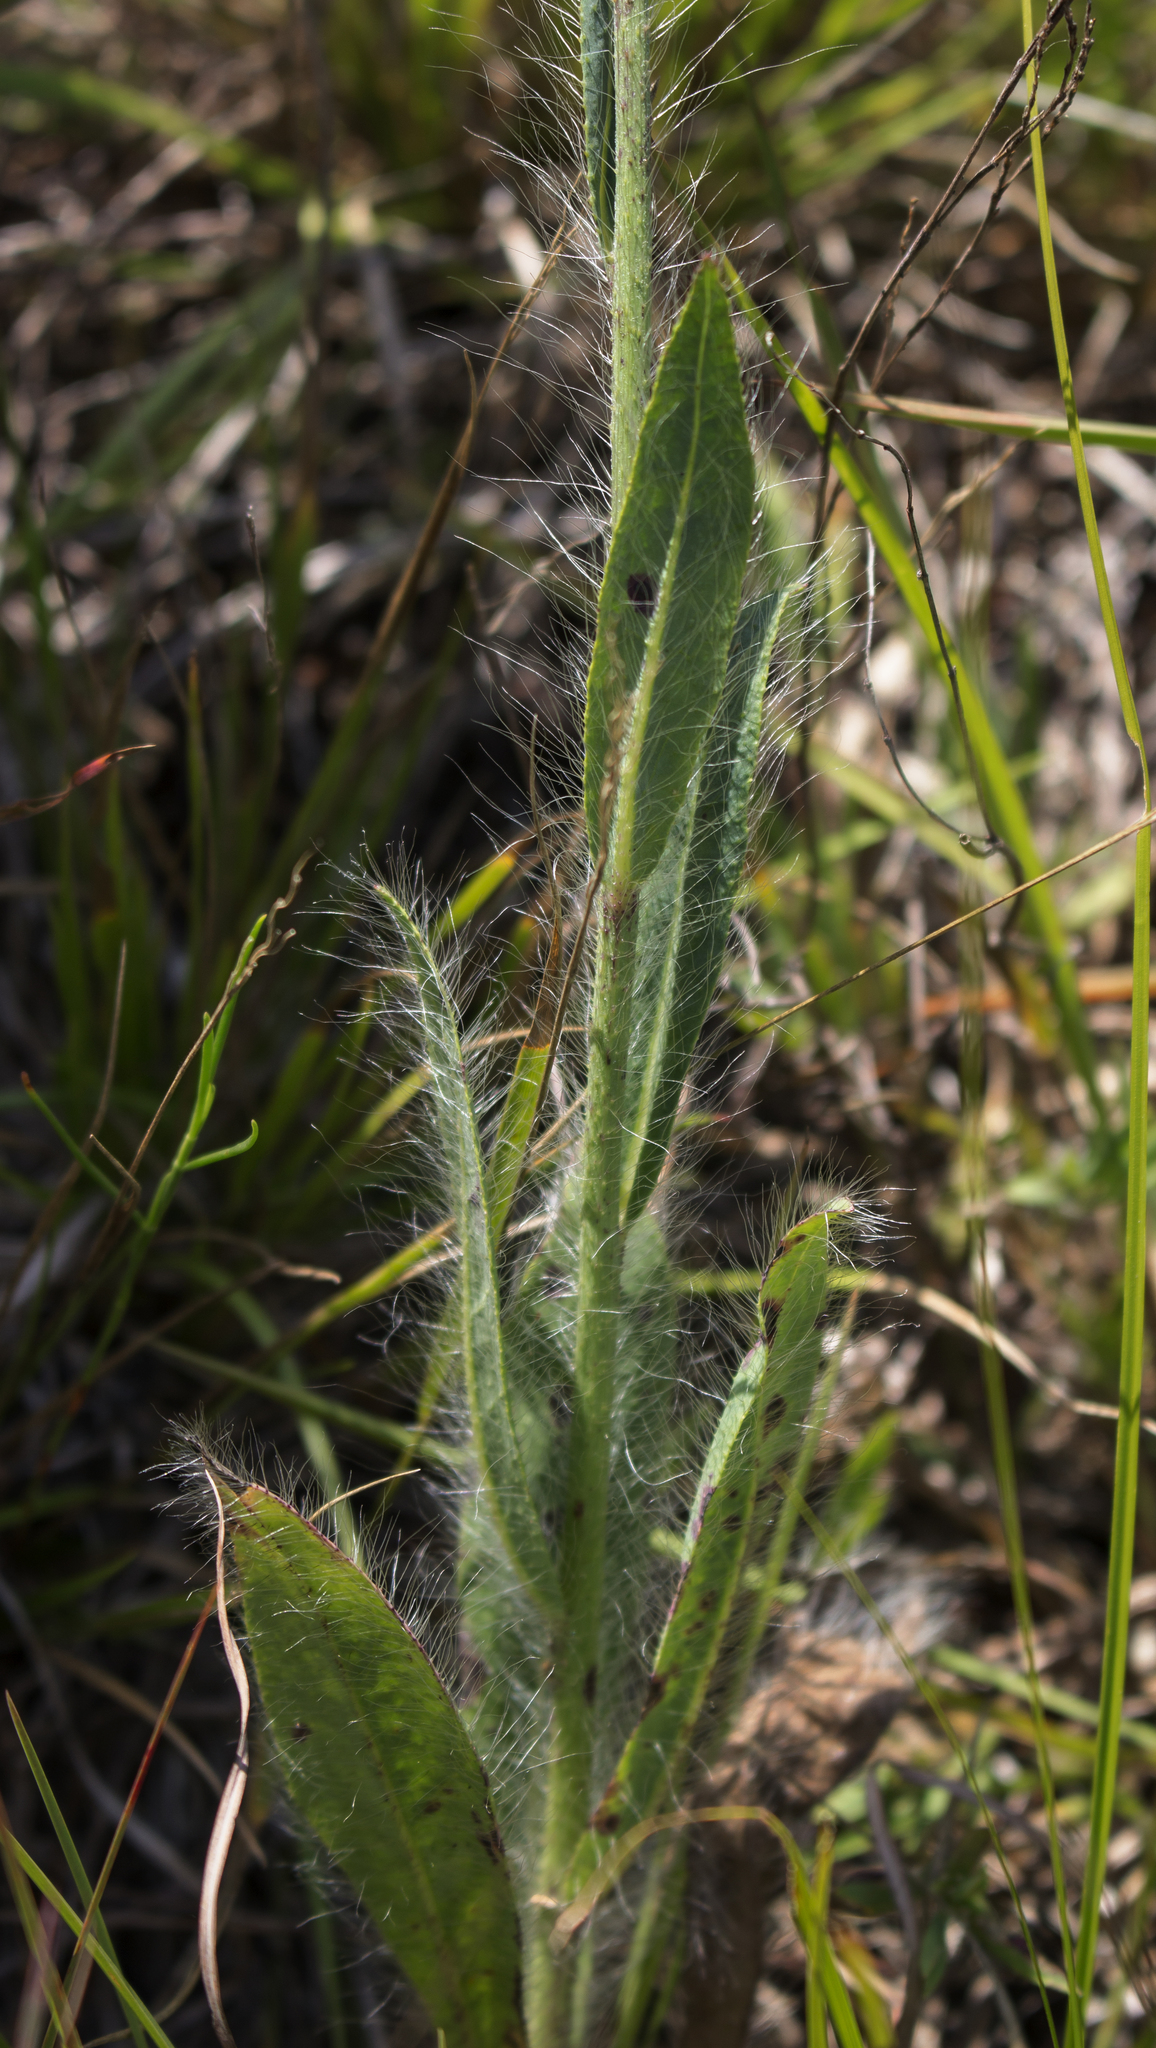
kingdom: Plantae
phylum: Tracheophyta
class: Magnoliopsida
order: Asterales
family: Asteraceae
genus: Hieracium
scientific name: Hieracium longipilum
